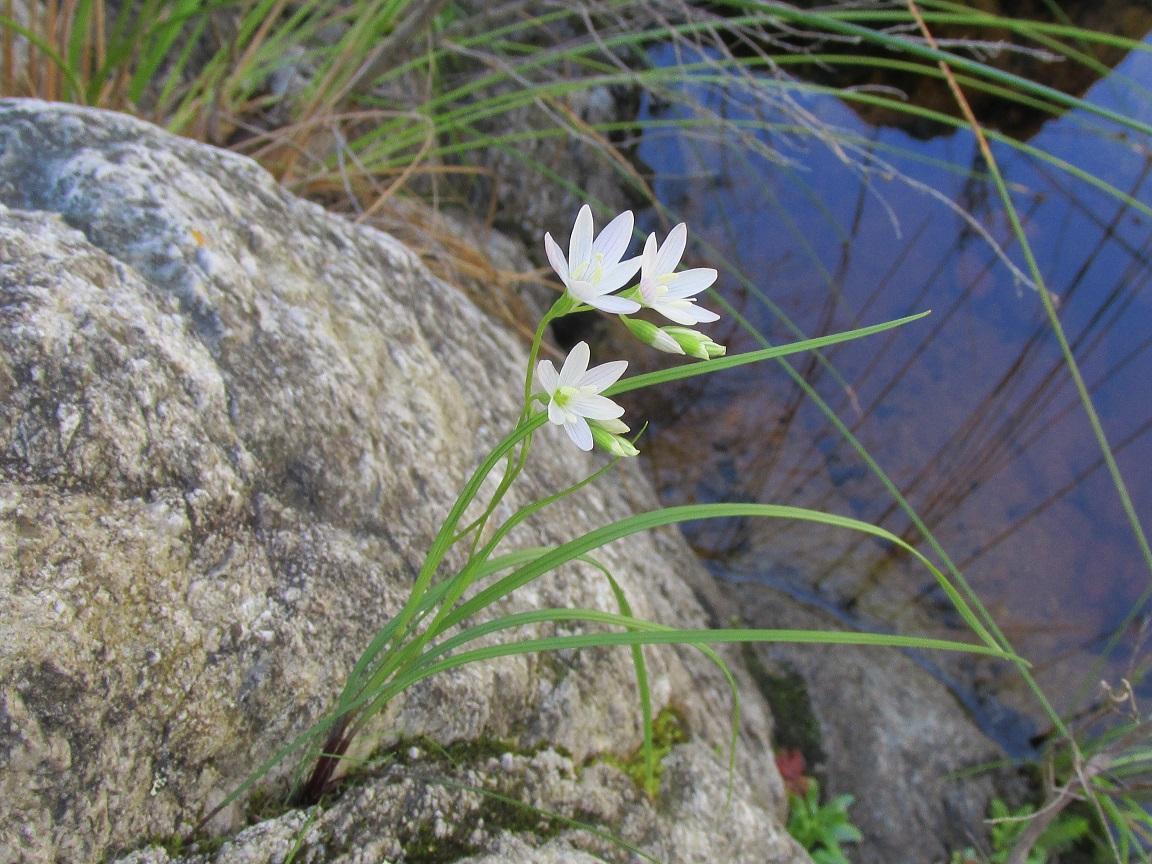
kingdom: Plantae
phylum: Tracheophyta
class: Liliopsida
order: Asparagales
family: Iridaceae
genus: Geissorhiza
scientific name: Geissorhiza bryicola
